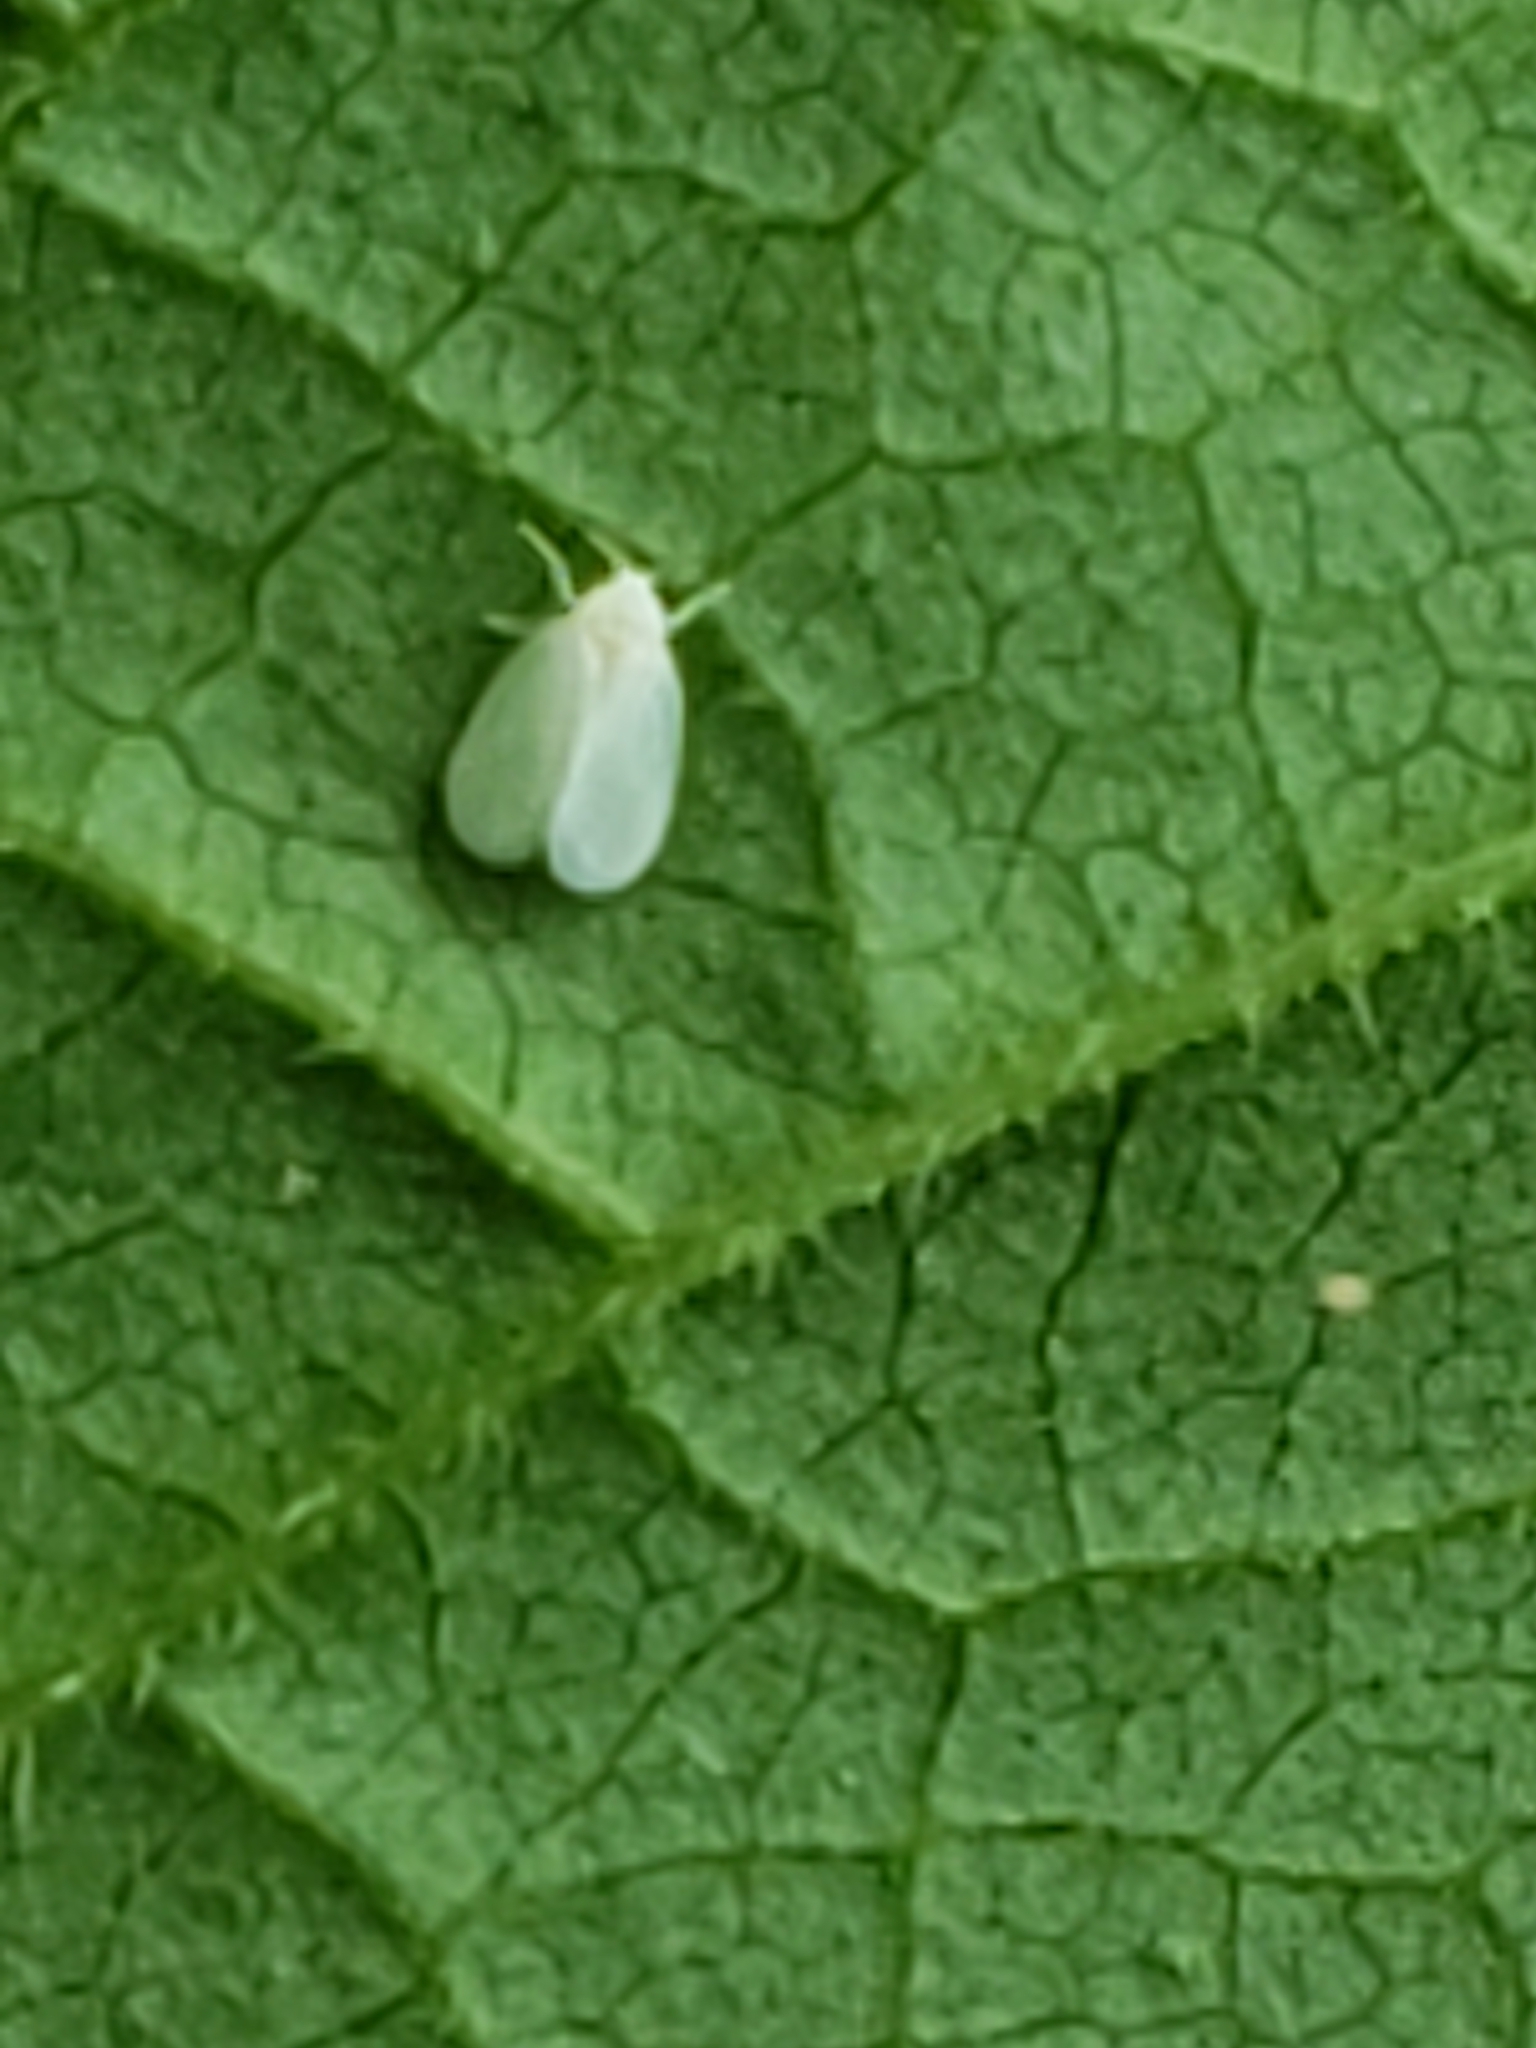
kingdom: Animalia
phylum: Arthropoda
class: Insecta
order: Hemiptera
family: Aleyrodidae
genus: Trialeurodes
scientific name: Trialeurodes vaporariorum
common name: Greenhouse white fly
